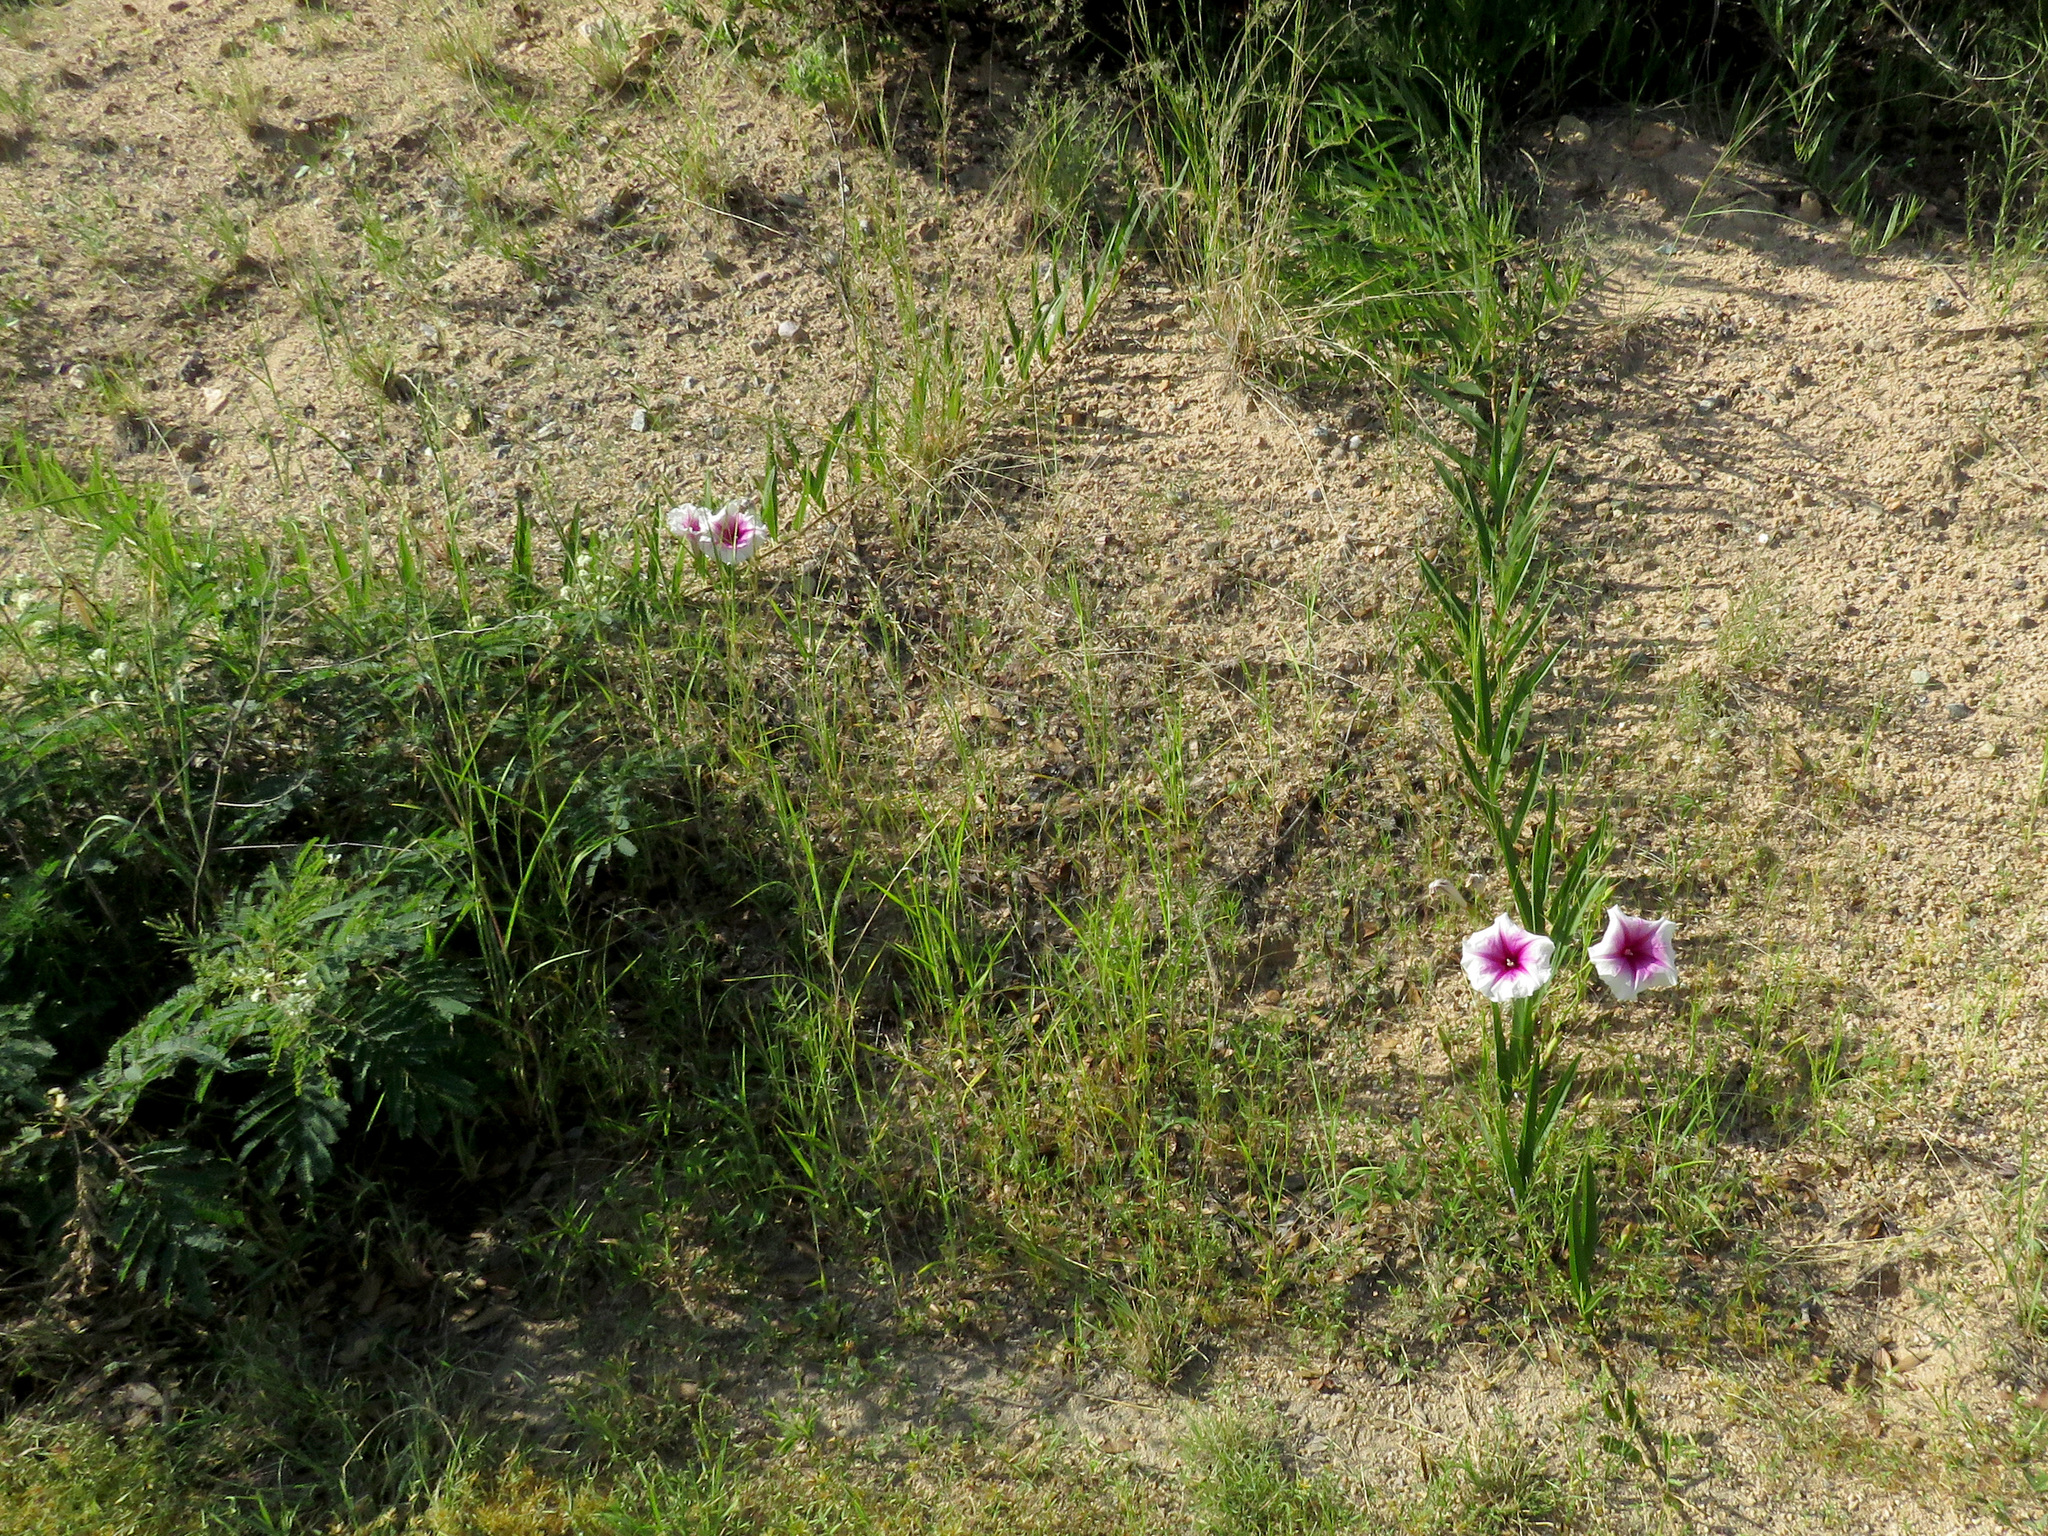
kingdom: Plantae
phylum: Tracheophyta
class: Magnoliopsida
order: Solanales
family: Convolvulaceae
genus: Ipomoea
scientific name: Ipomoea longifolia
